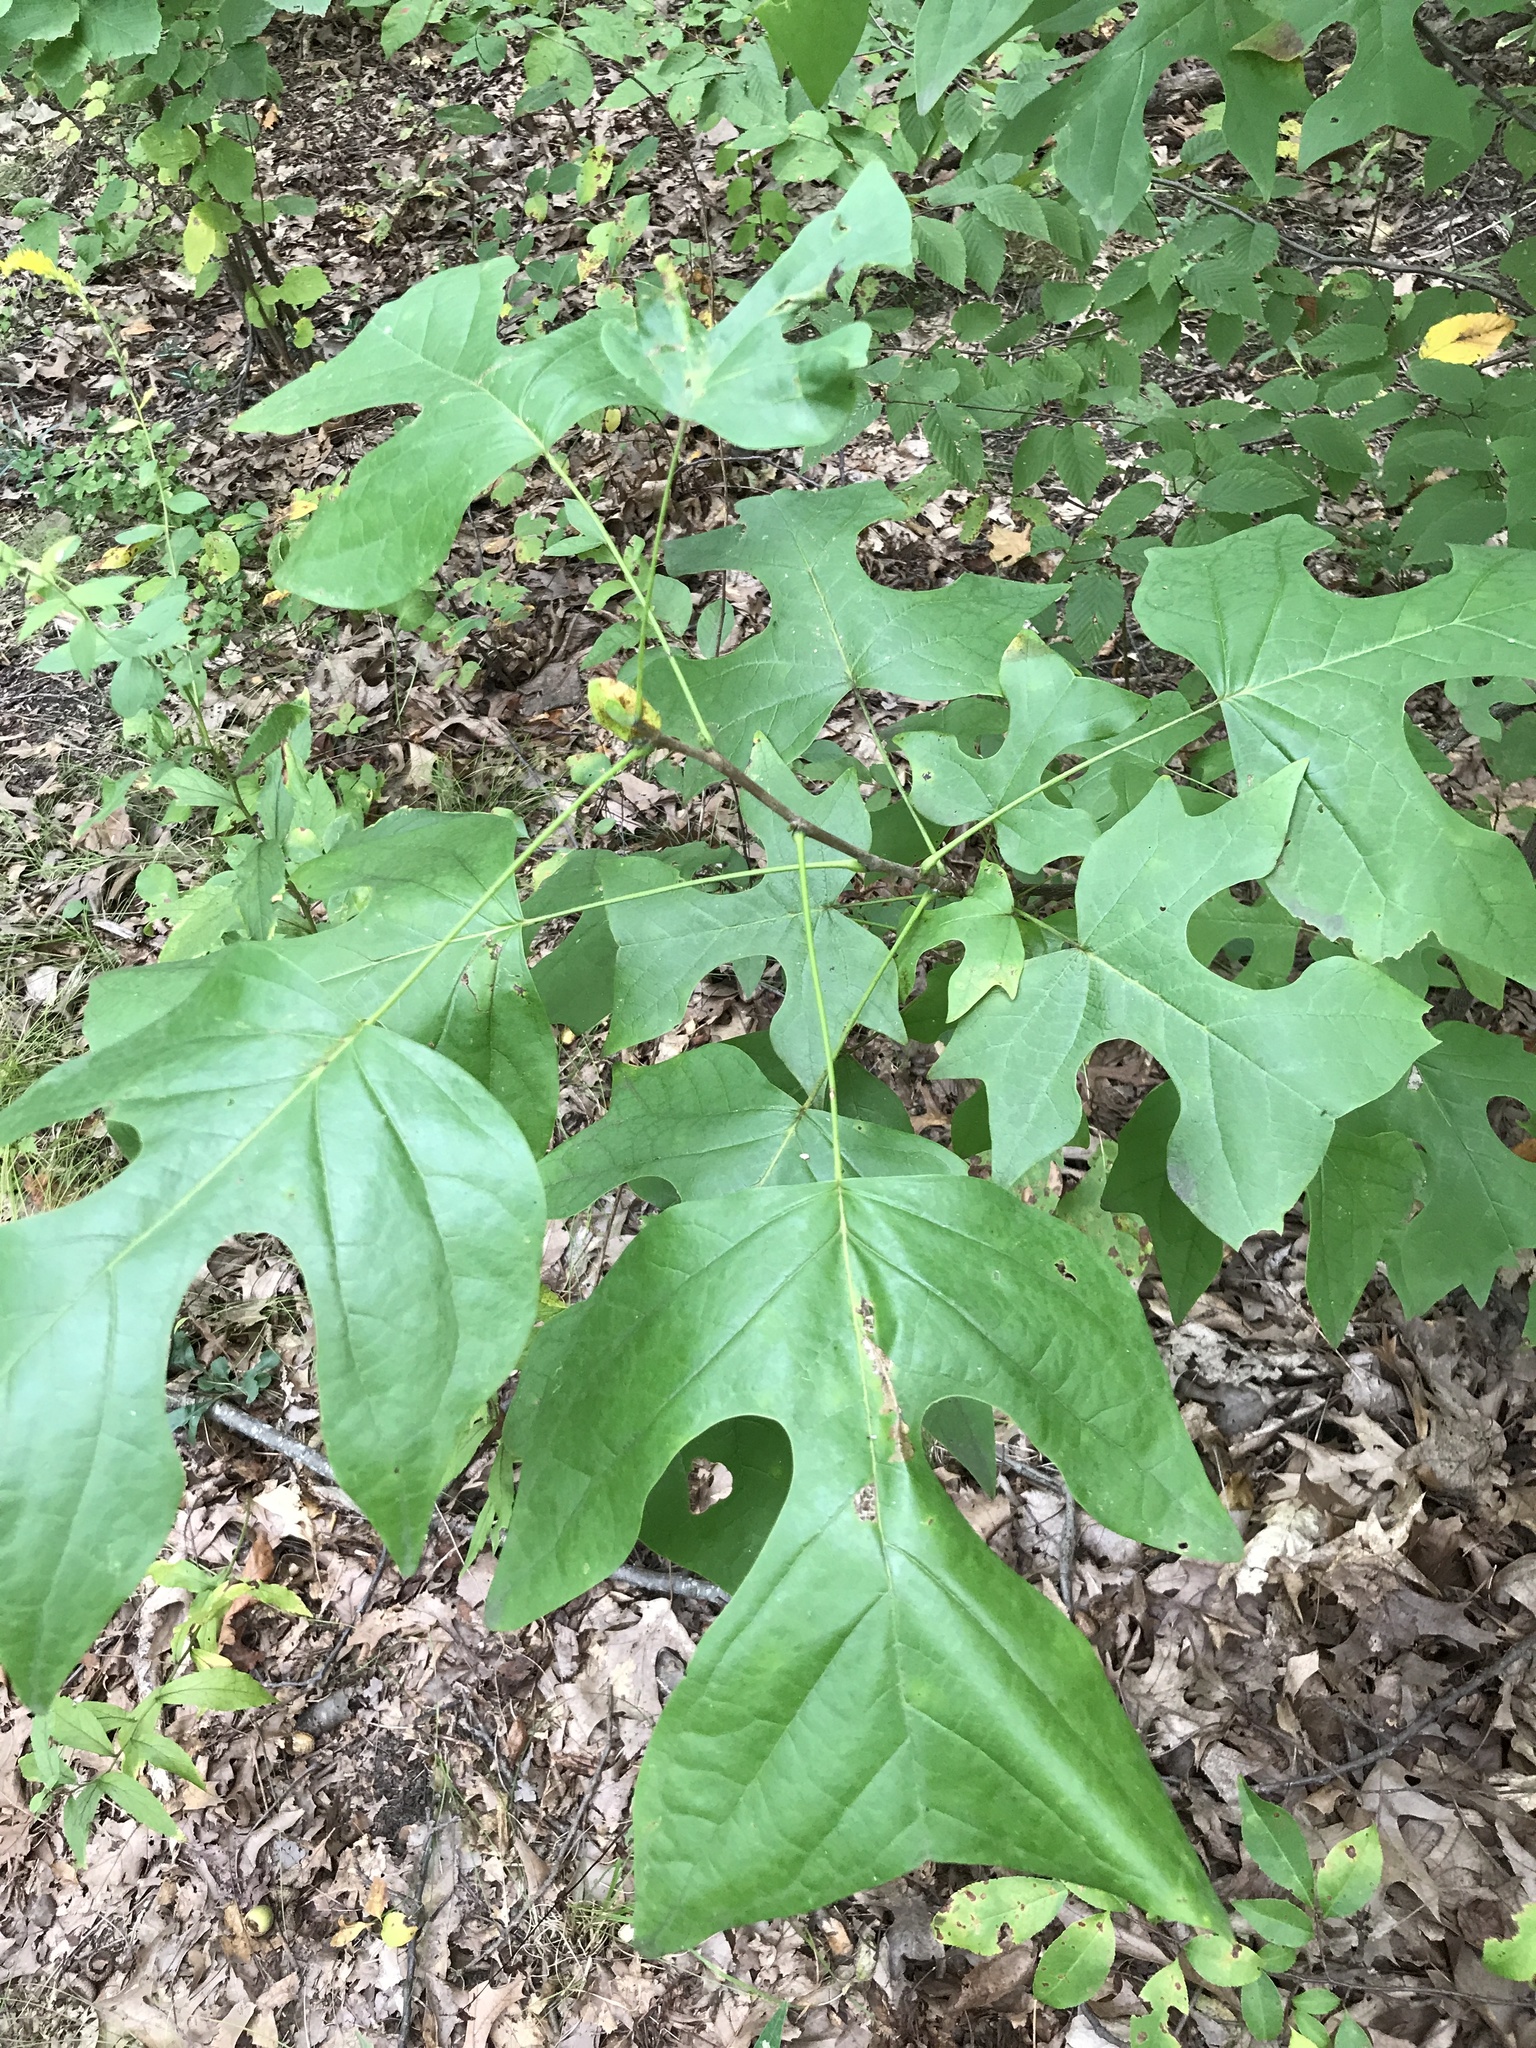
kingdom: Plantae
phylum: Tracheophyta
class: Magnoliopsida
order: Magnoliales
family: Magnoliaceae
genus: Liriodendron
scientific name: Liriodendron tulipifera
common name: Tulip tree
